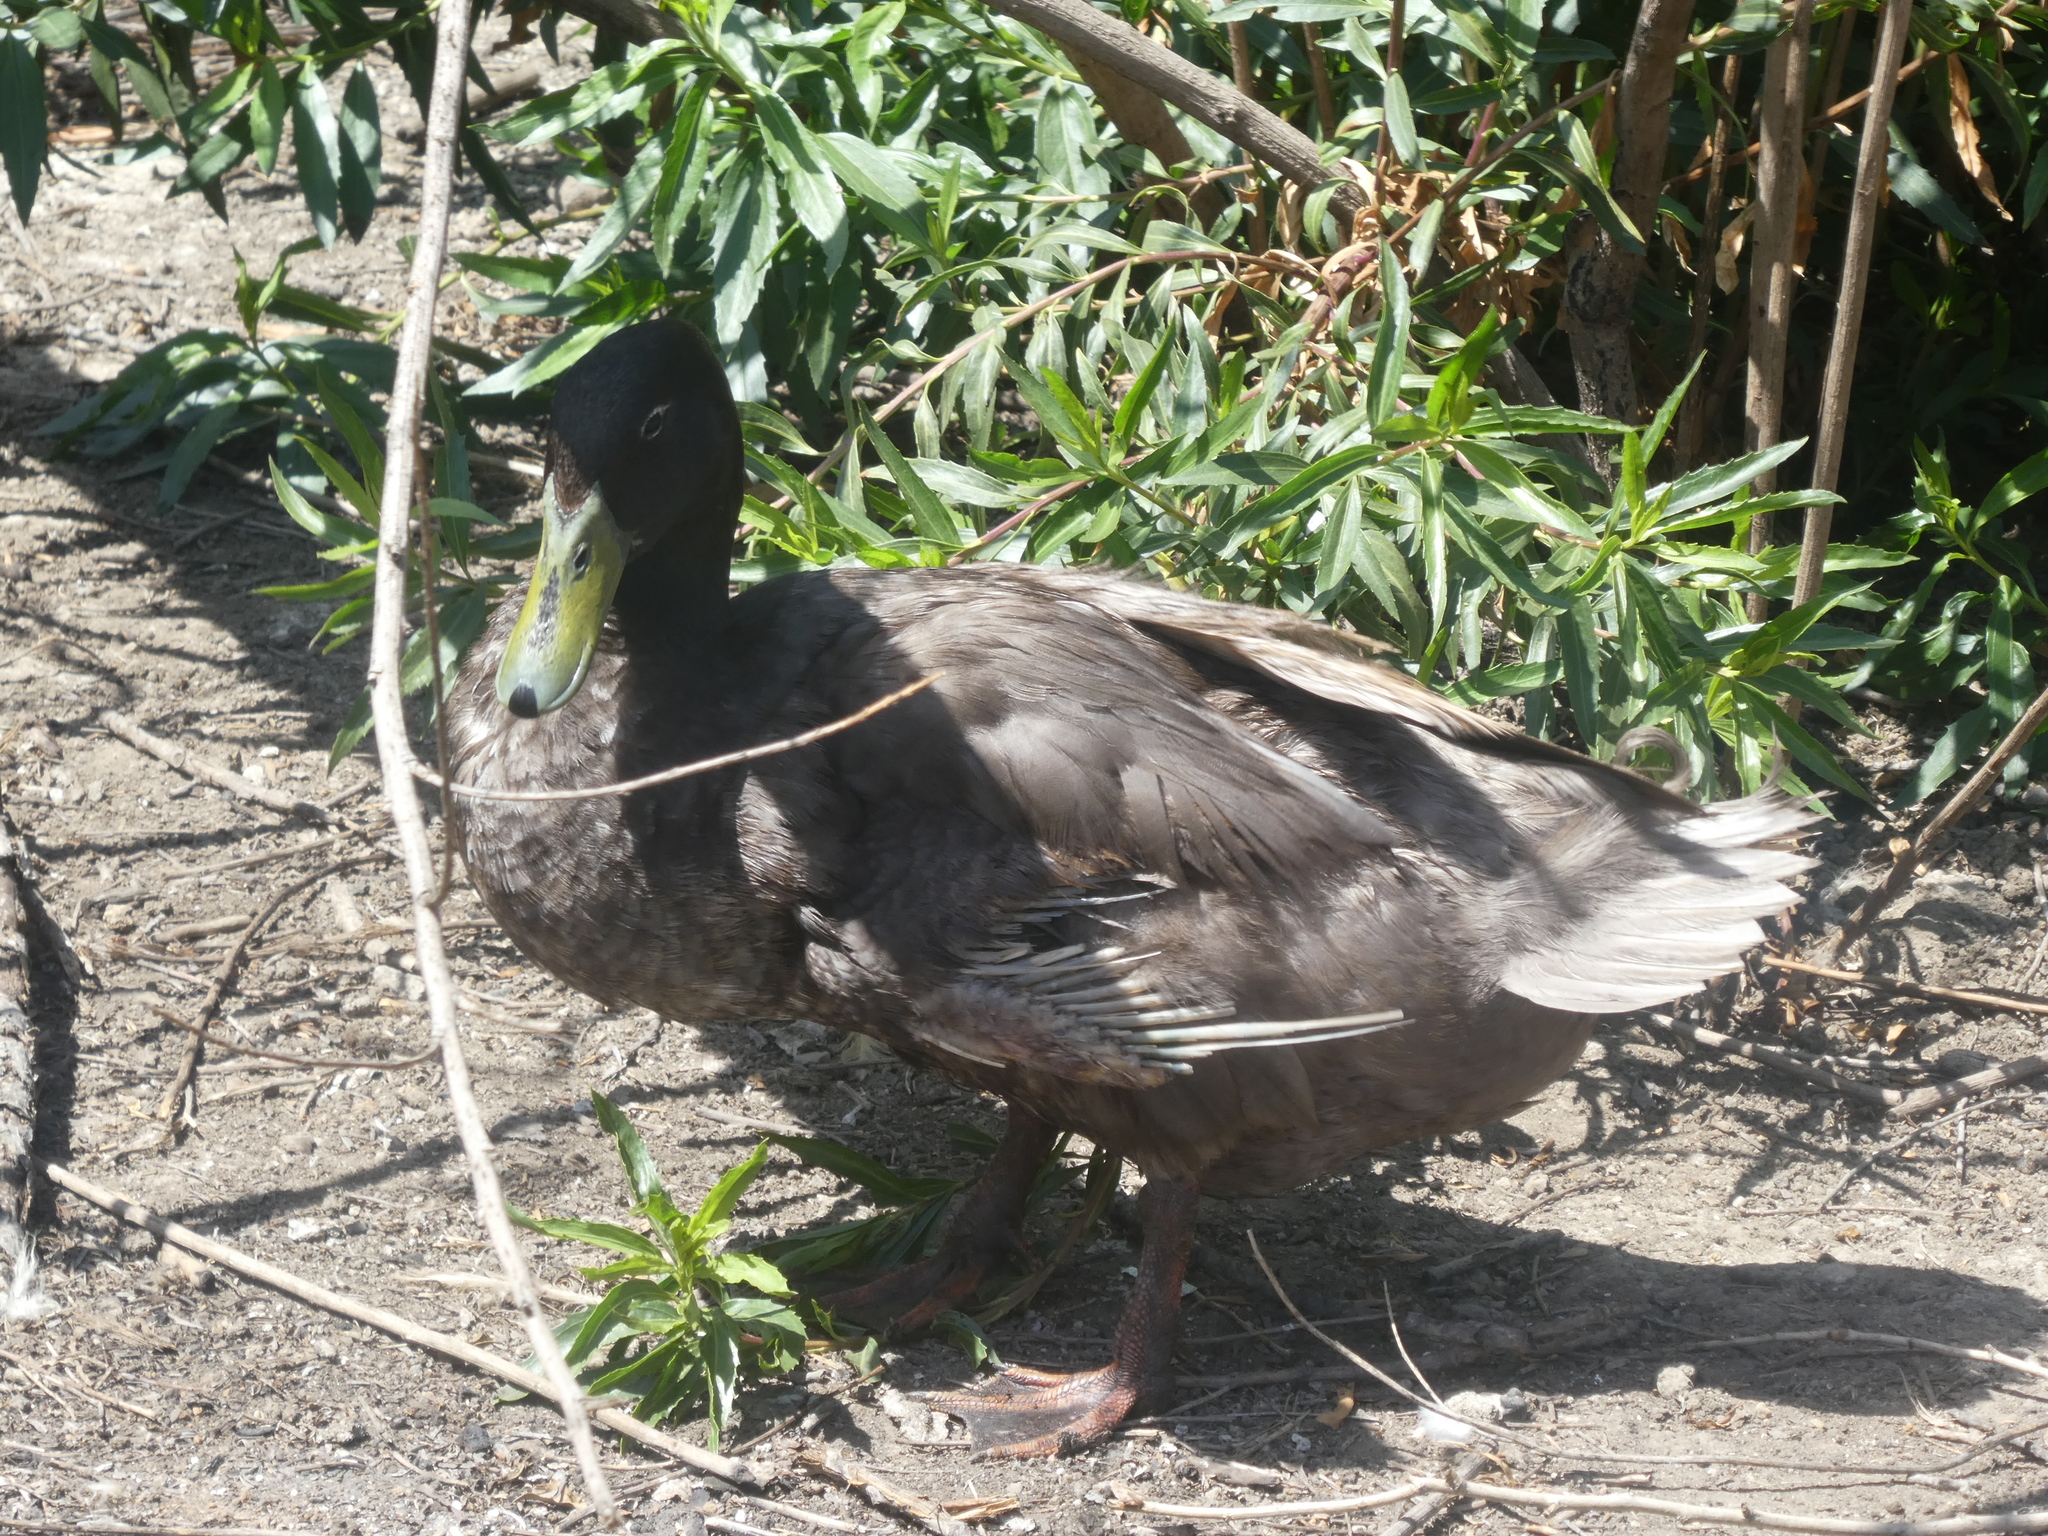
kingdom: Animalia
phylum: Chordata
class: Aves
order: Anseriformes
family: Anatidae
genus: Anas
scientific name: Anas platyrhynchos
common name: Mallard
